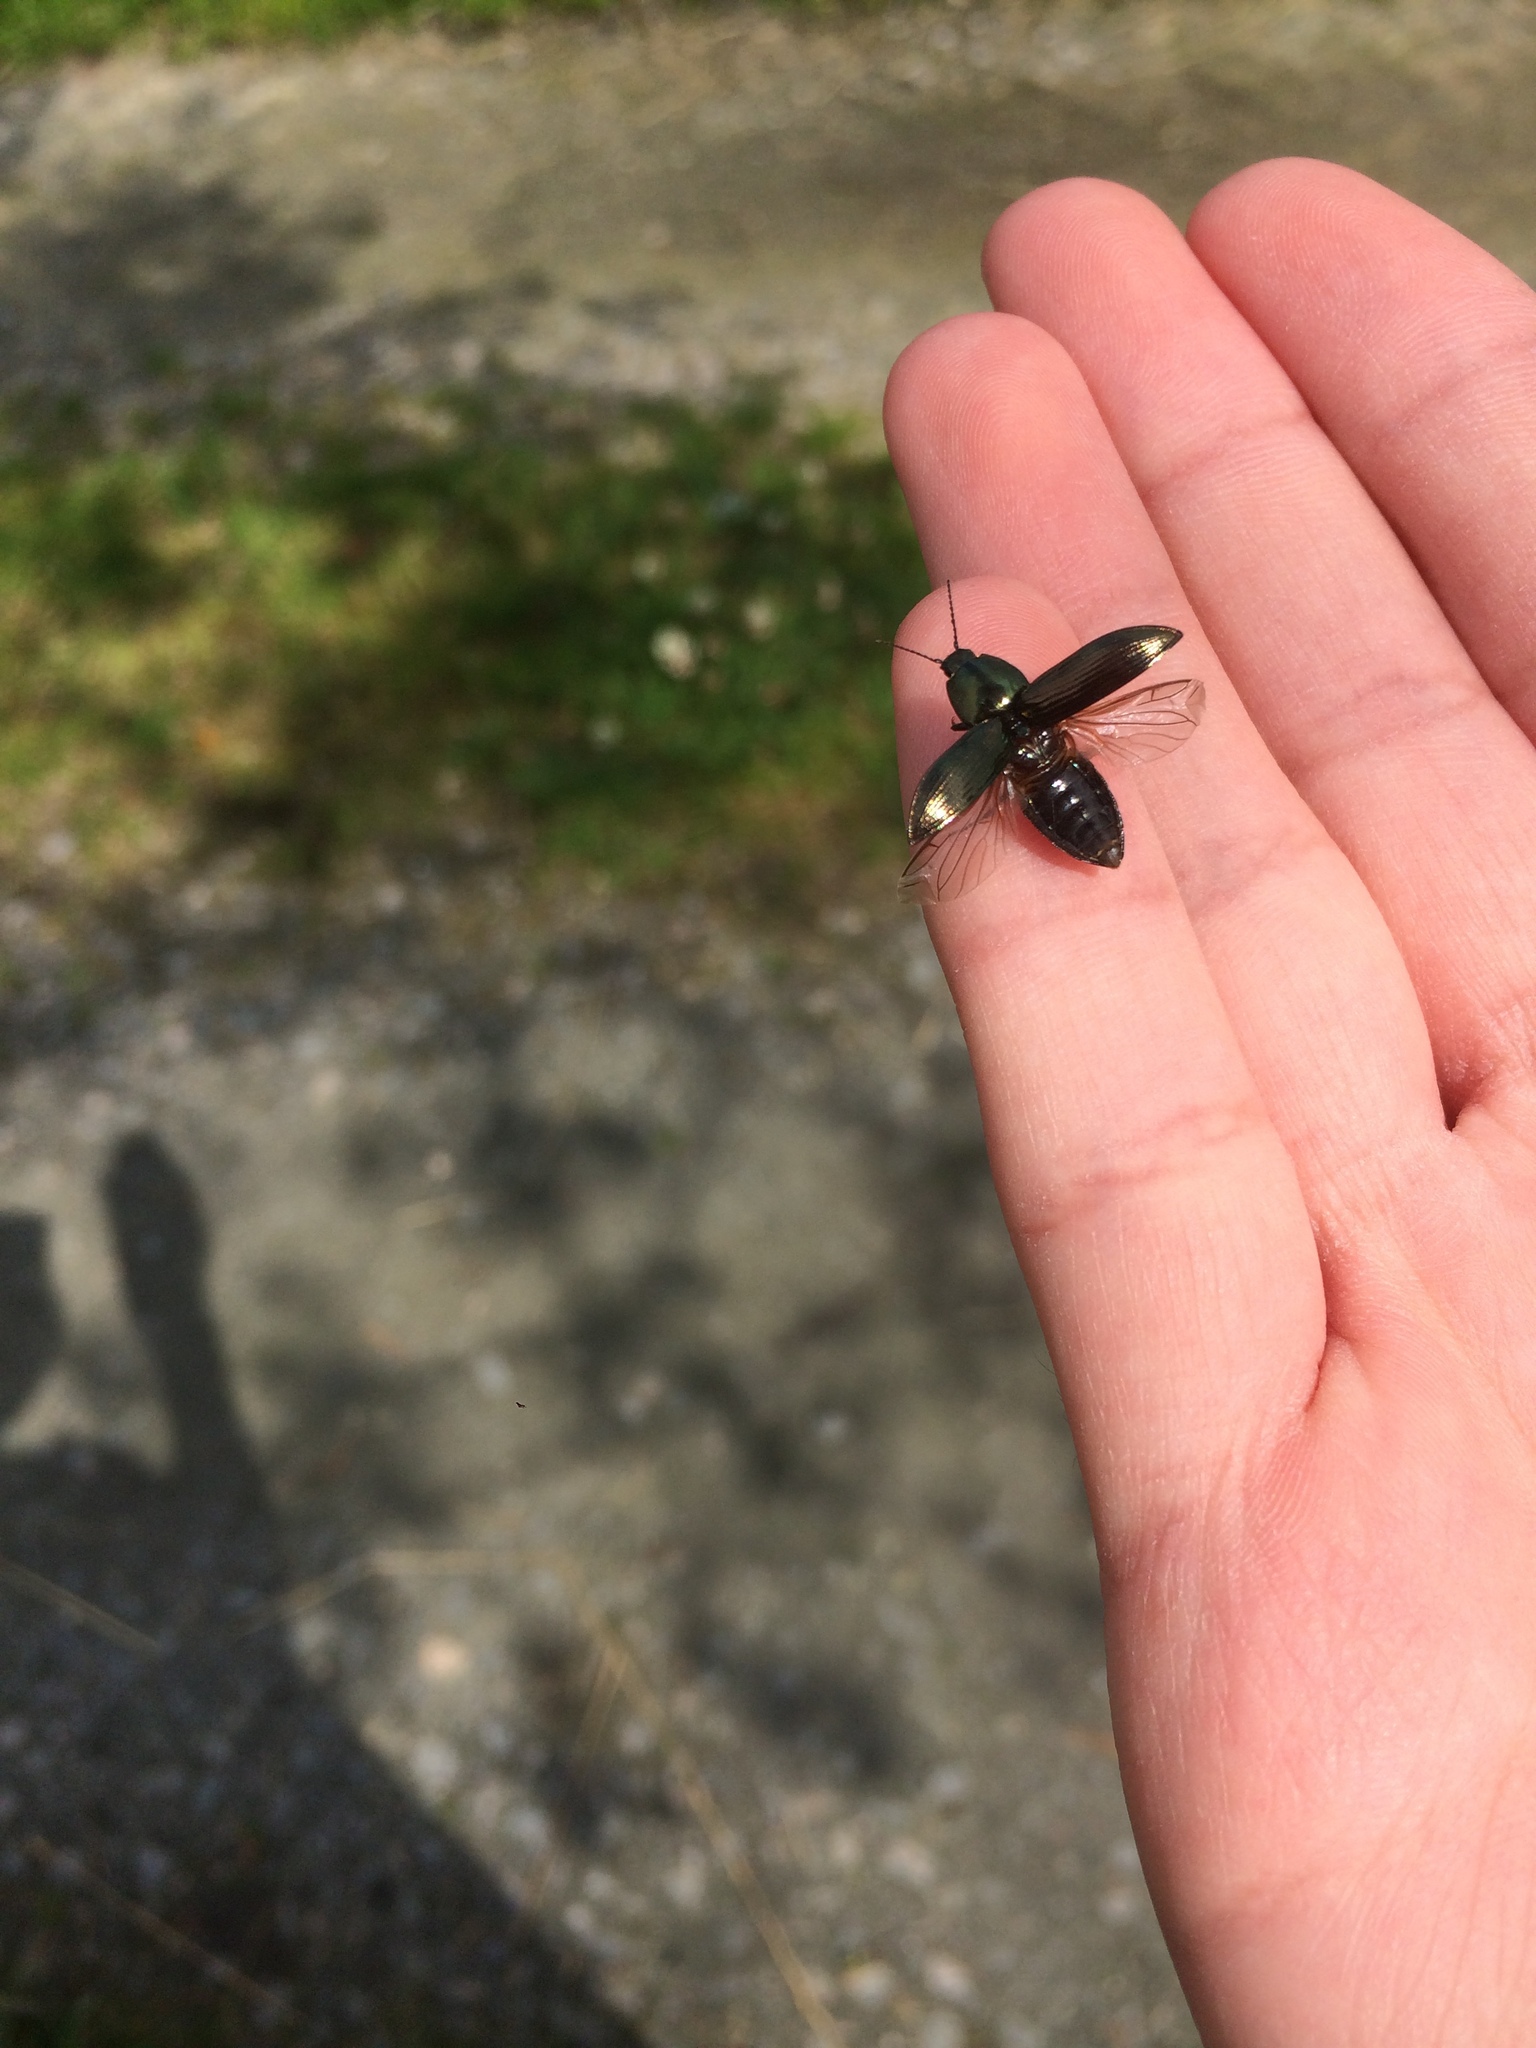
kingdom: Animalia
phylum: Arthropoda
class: Insecta
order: Coleoptera
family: Elateridae
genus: Selatosomus
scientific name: Selatosomus aeneus
